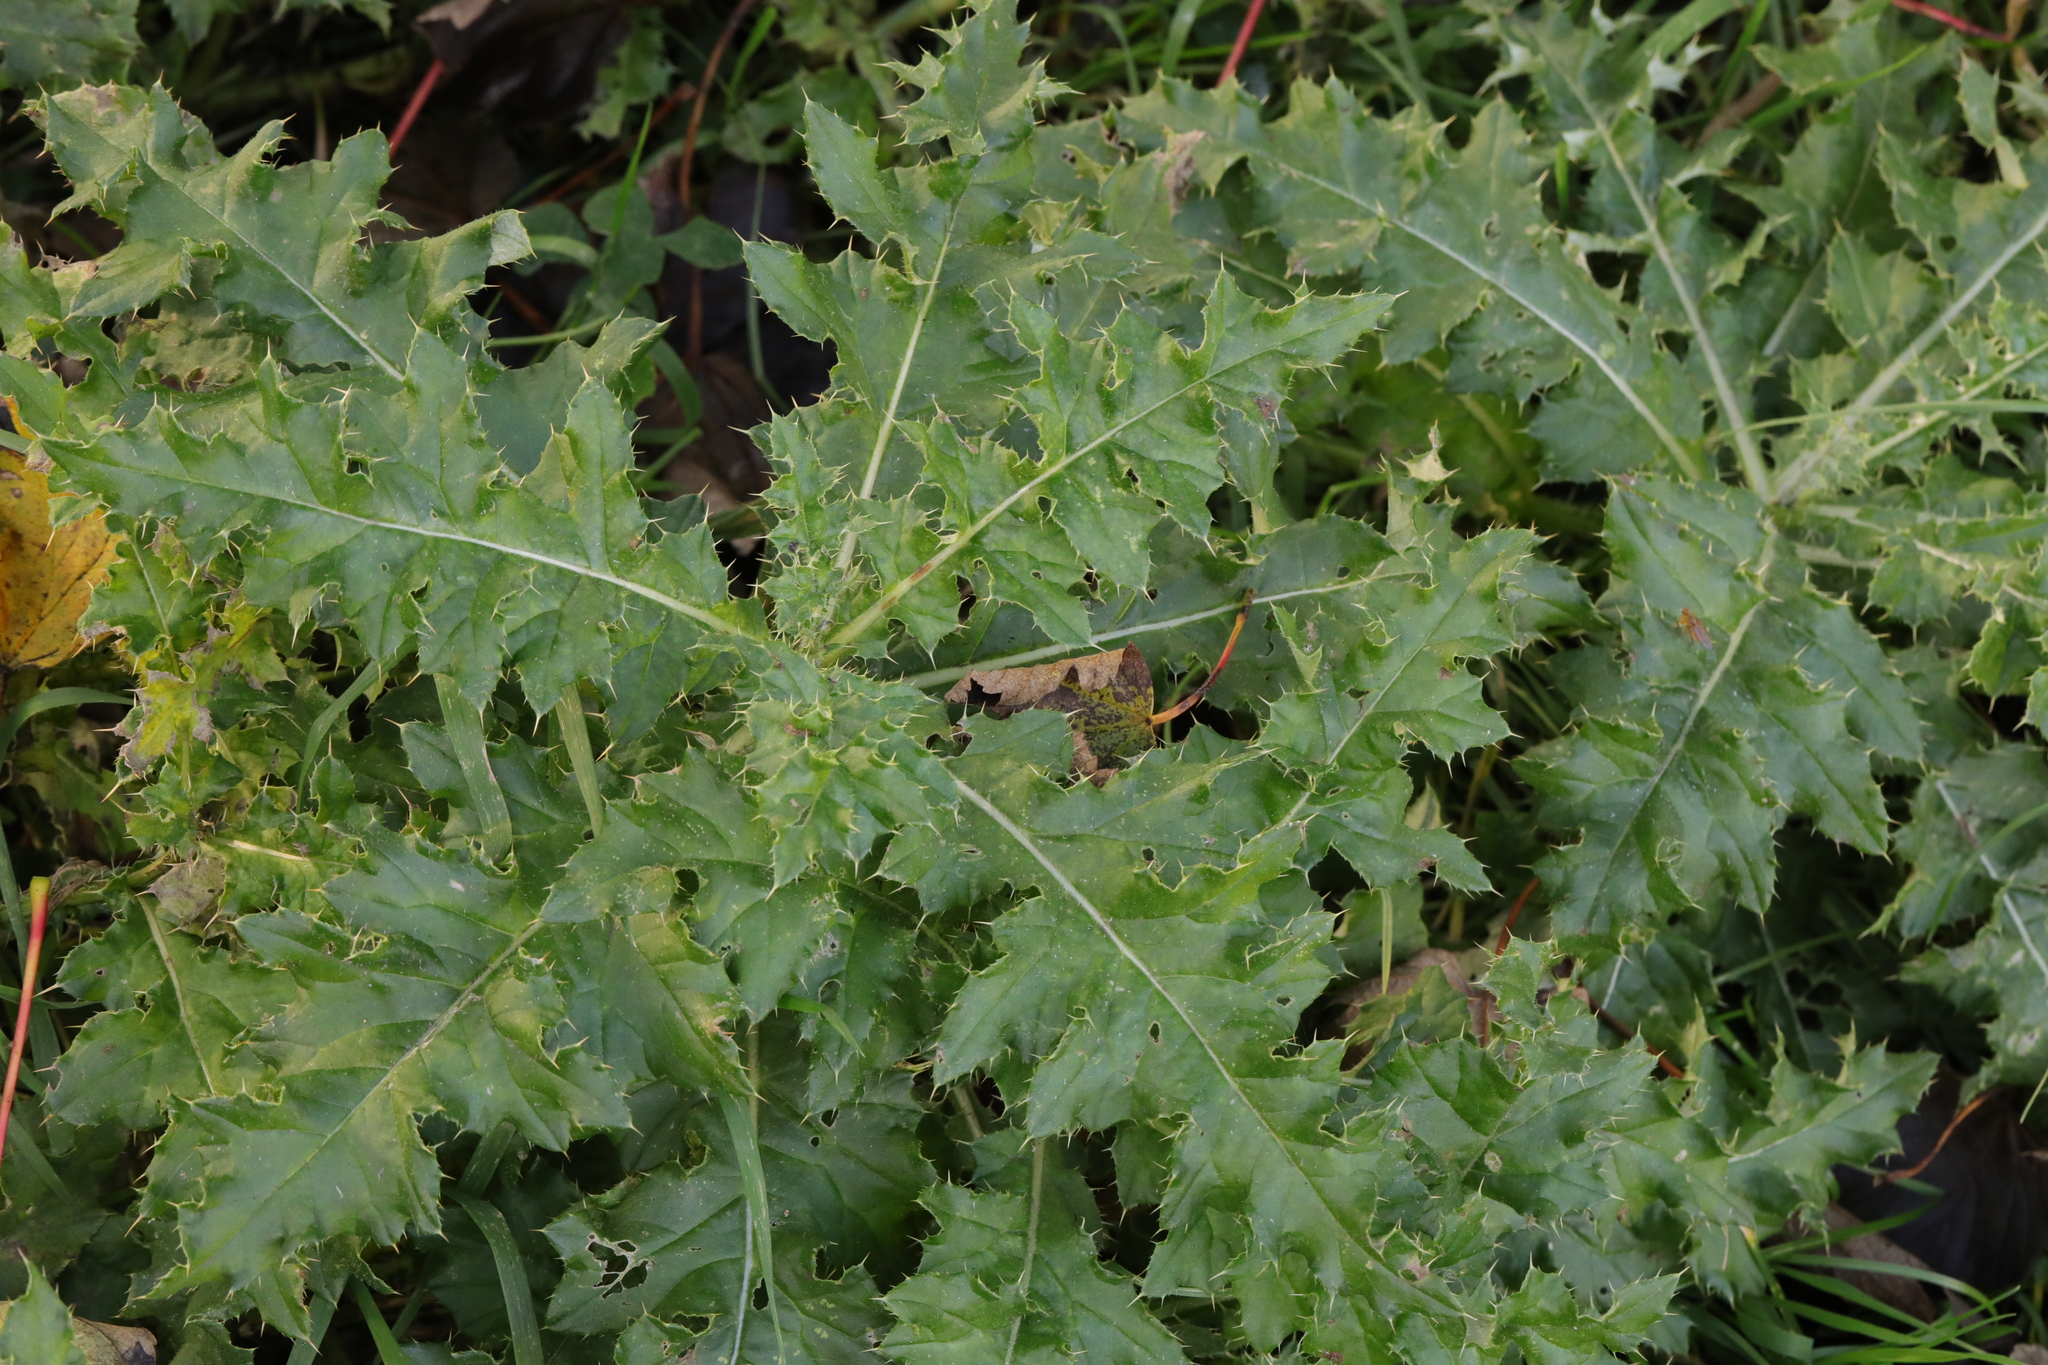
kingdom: Plantae
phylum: Tracheophyta
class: Magnoliopsida
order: Asterales
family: Asteraceae
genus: Cirsium
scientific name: Cirsium arvense
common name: Creeping thistle
